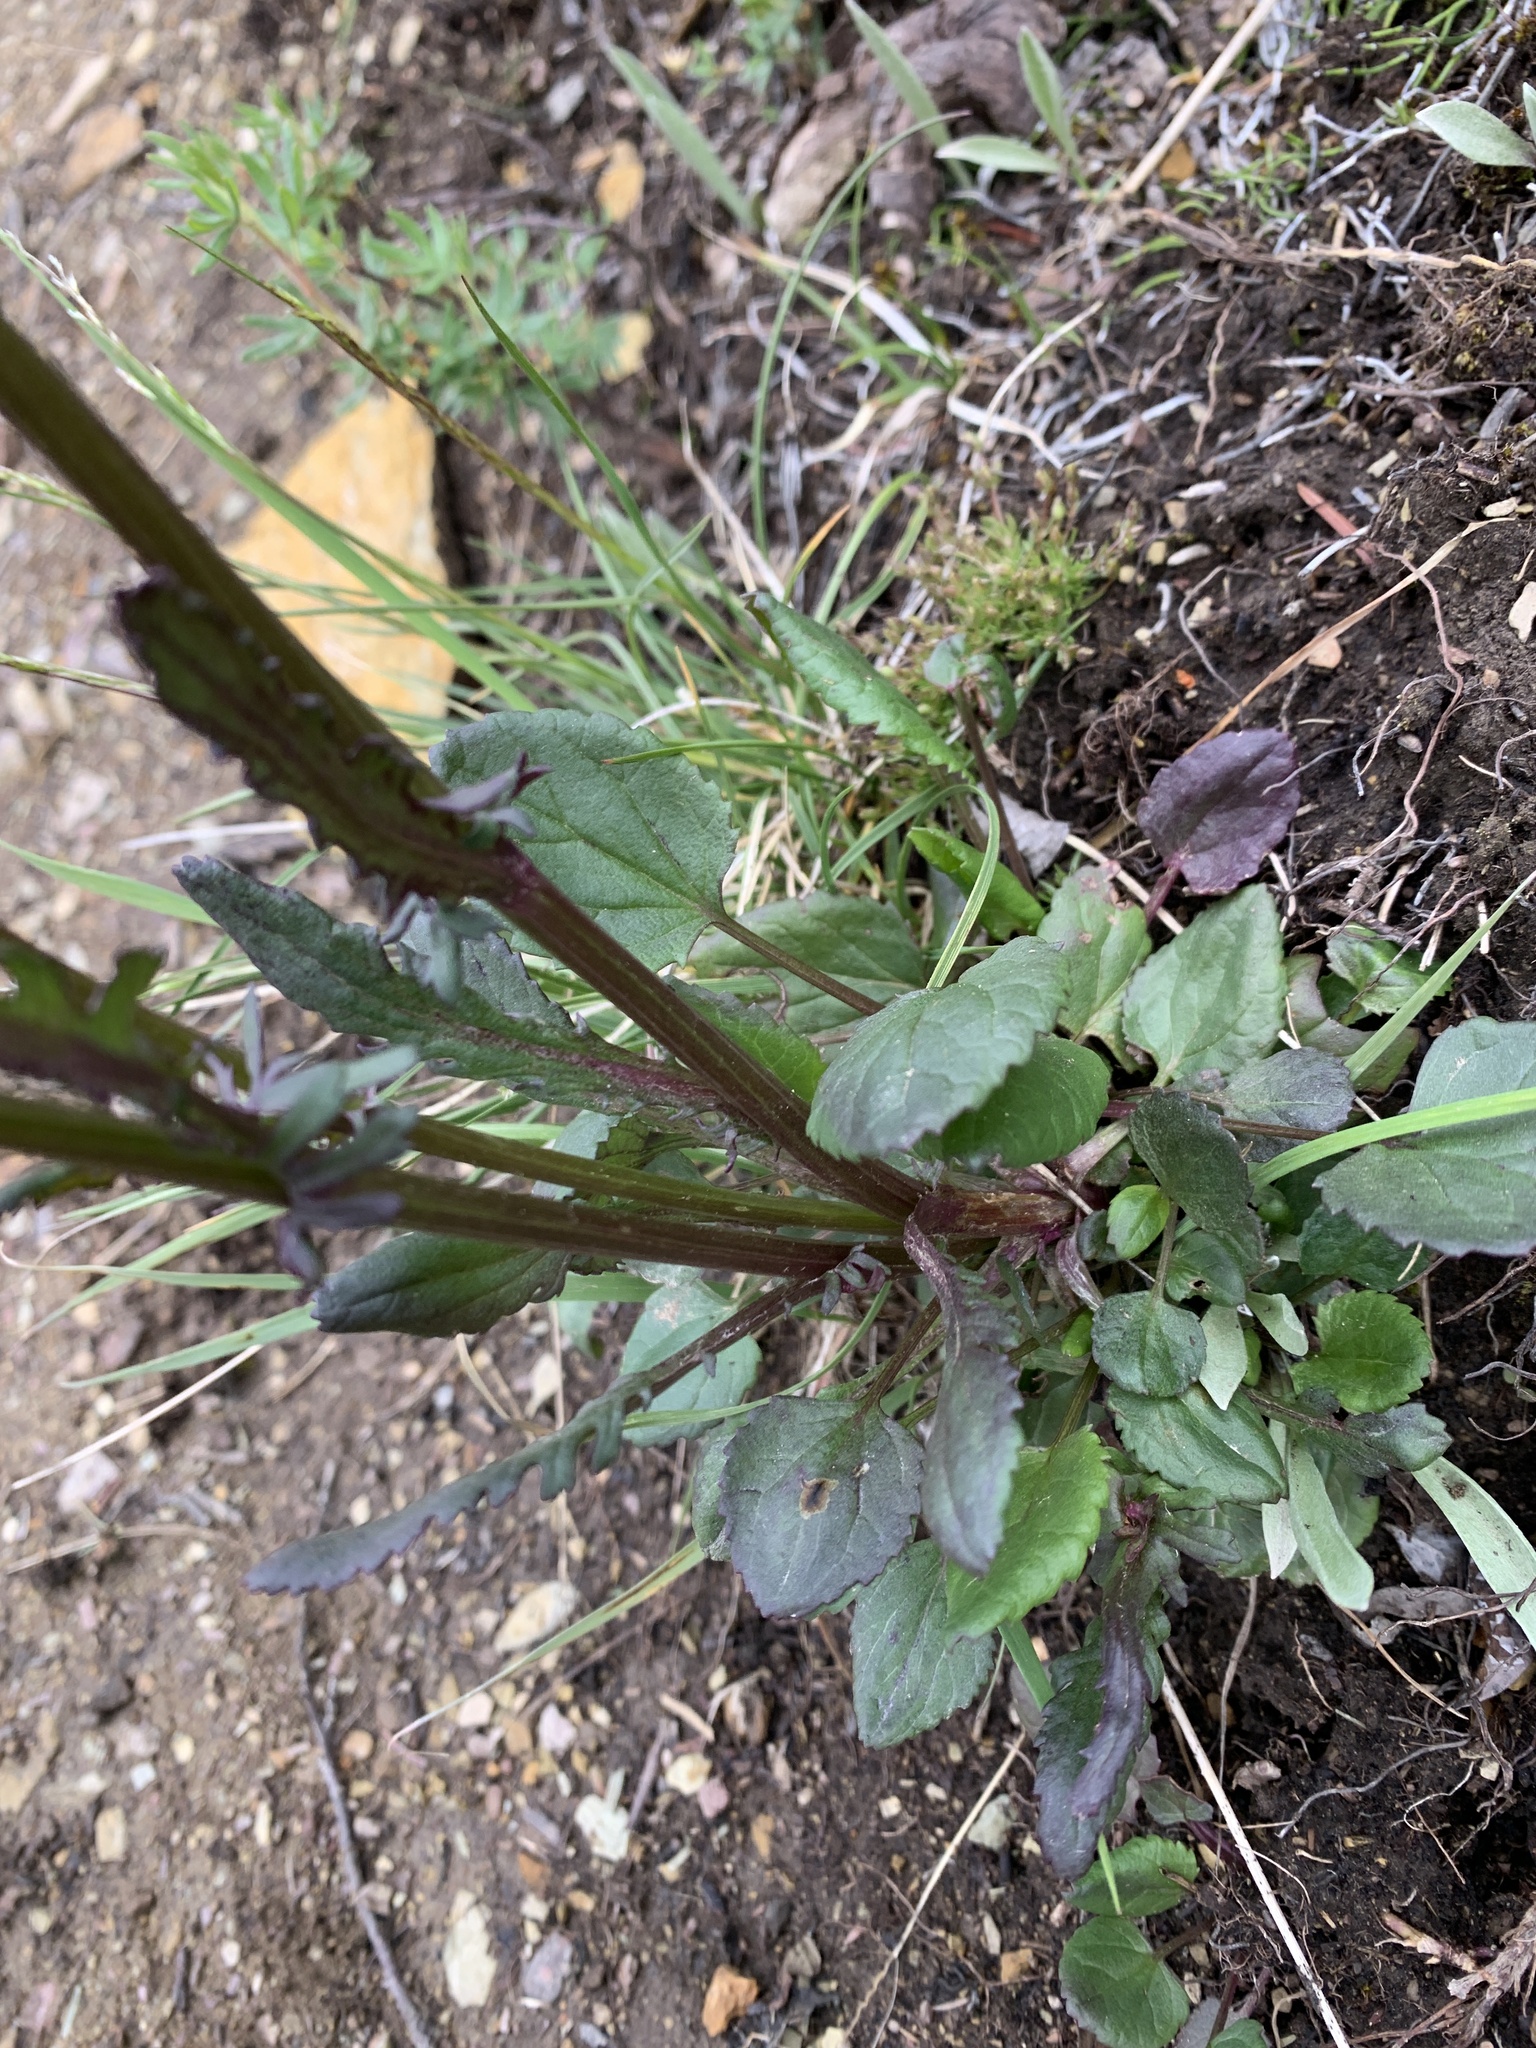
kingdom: Plantae
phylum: Tracheophyta
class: Magnoliopsida
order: Asterales
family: Asteraceae
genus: Packera
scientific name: Packera pauciflora
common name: Alpine groundsel
